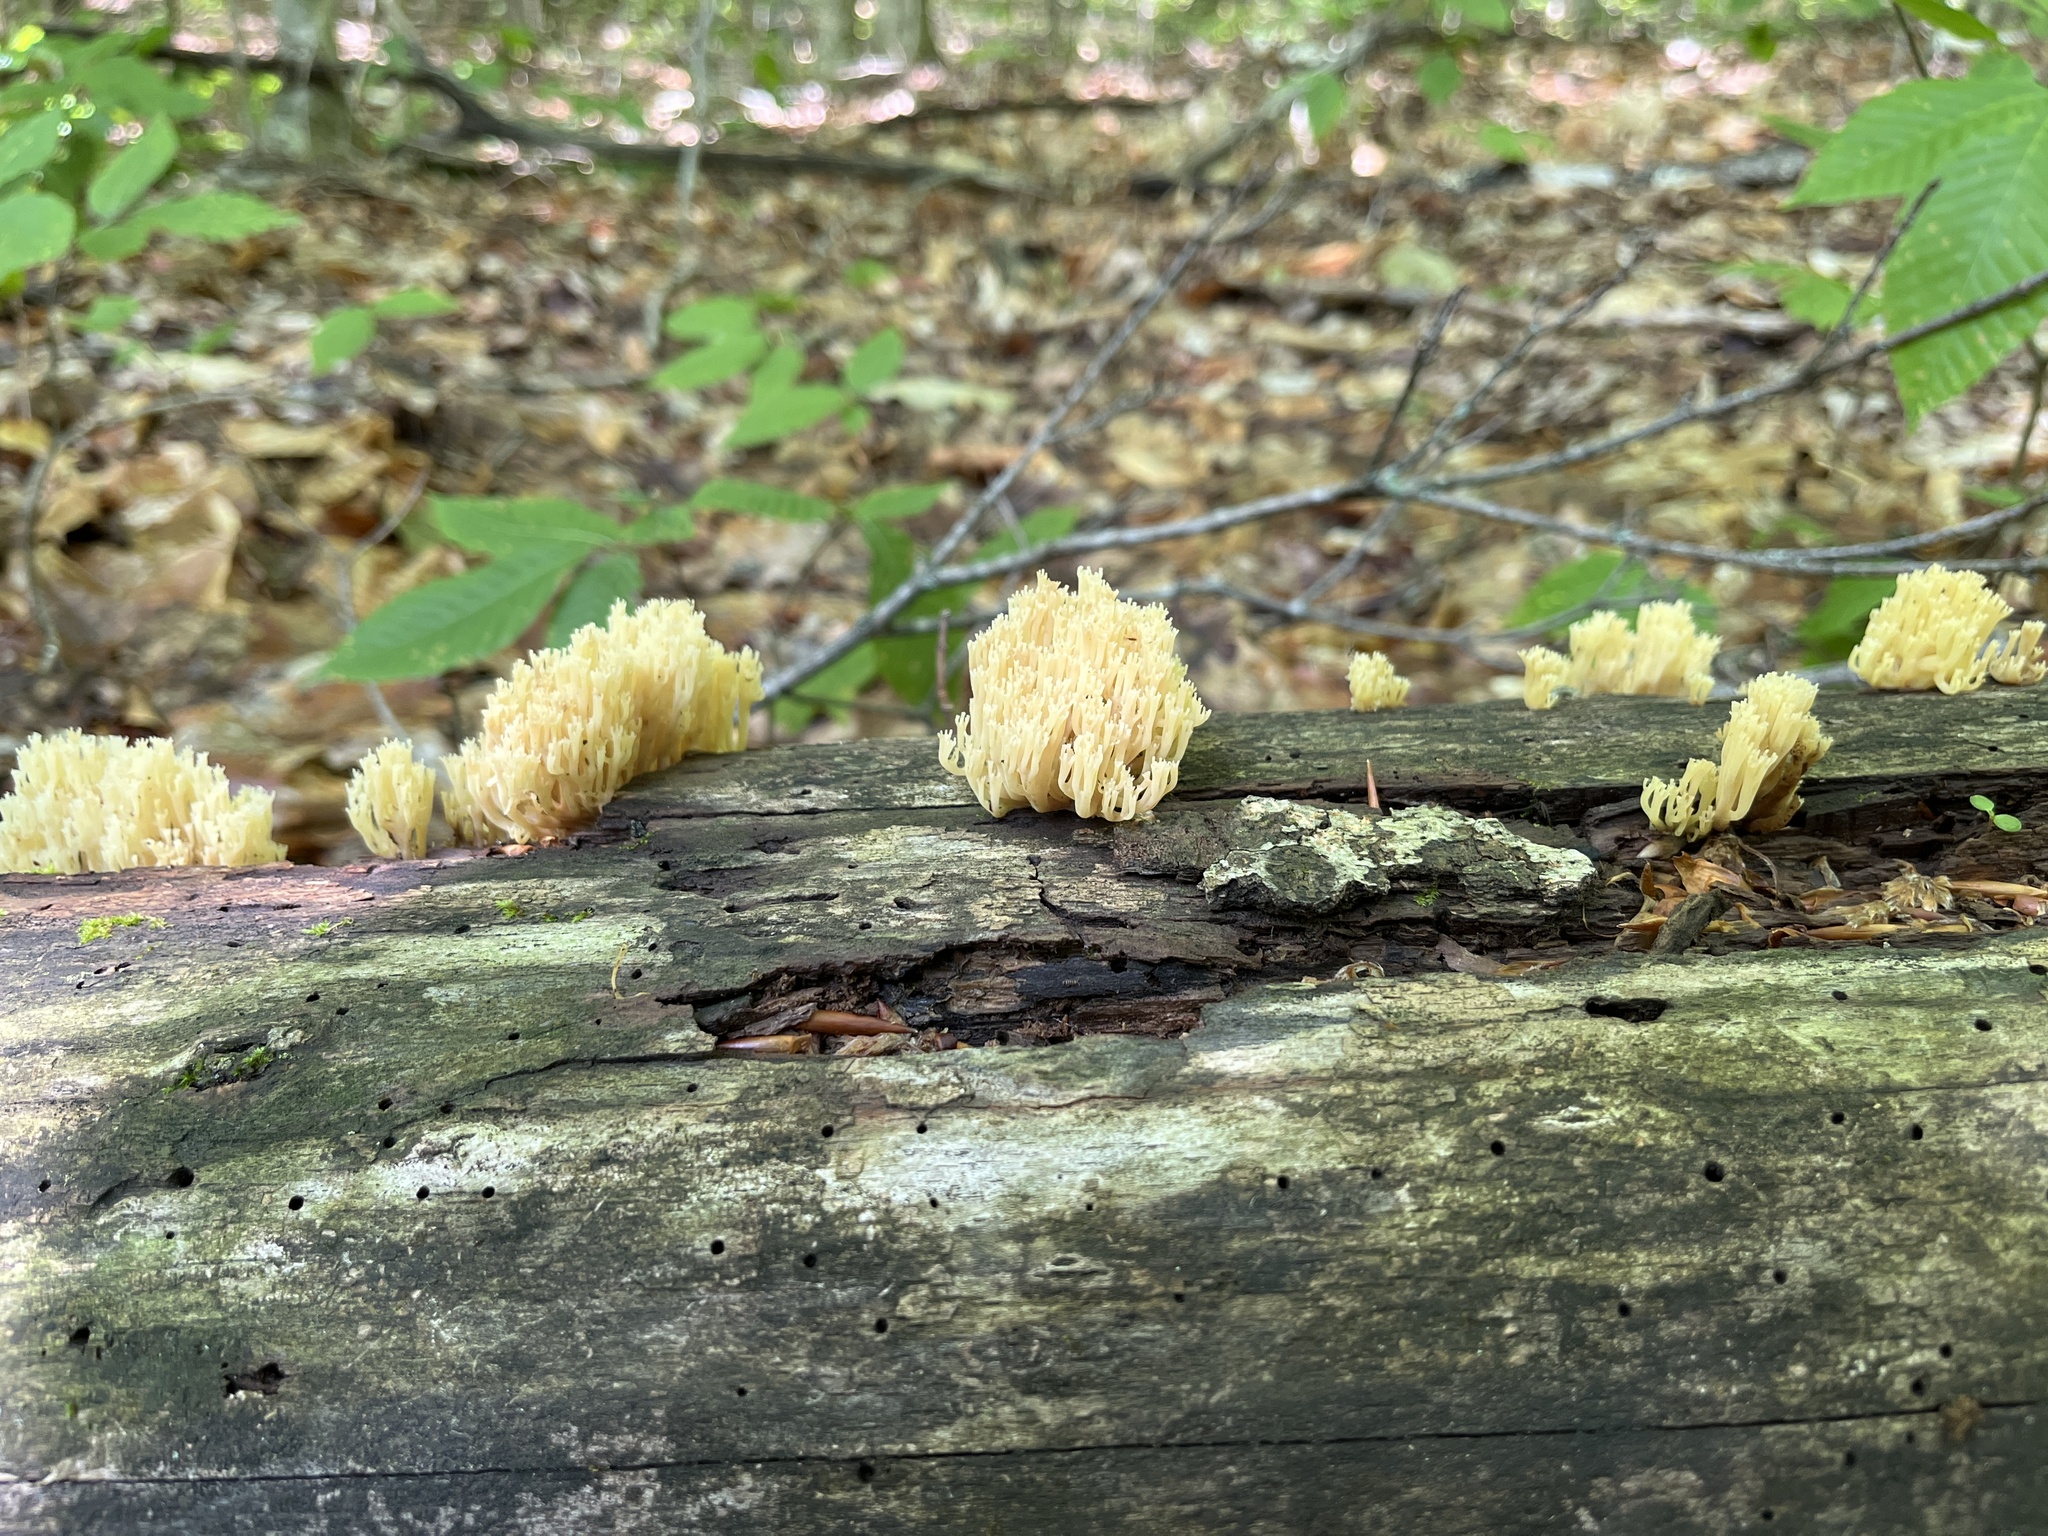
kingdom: Fungi
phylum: Basidiomycota
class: Agaricomycetes
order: Russulales
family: Auriscalpiaceae
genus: Artomyces
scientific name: Artomyces pyxidatus
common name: Crown-tipped coral fungus
